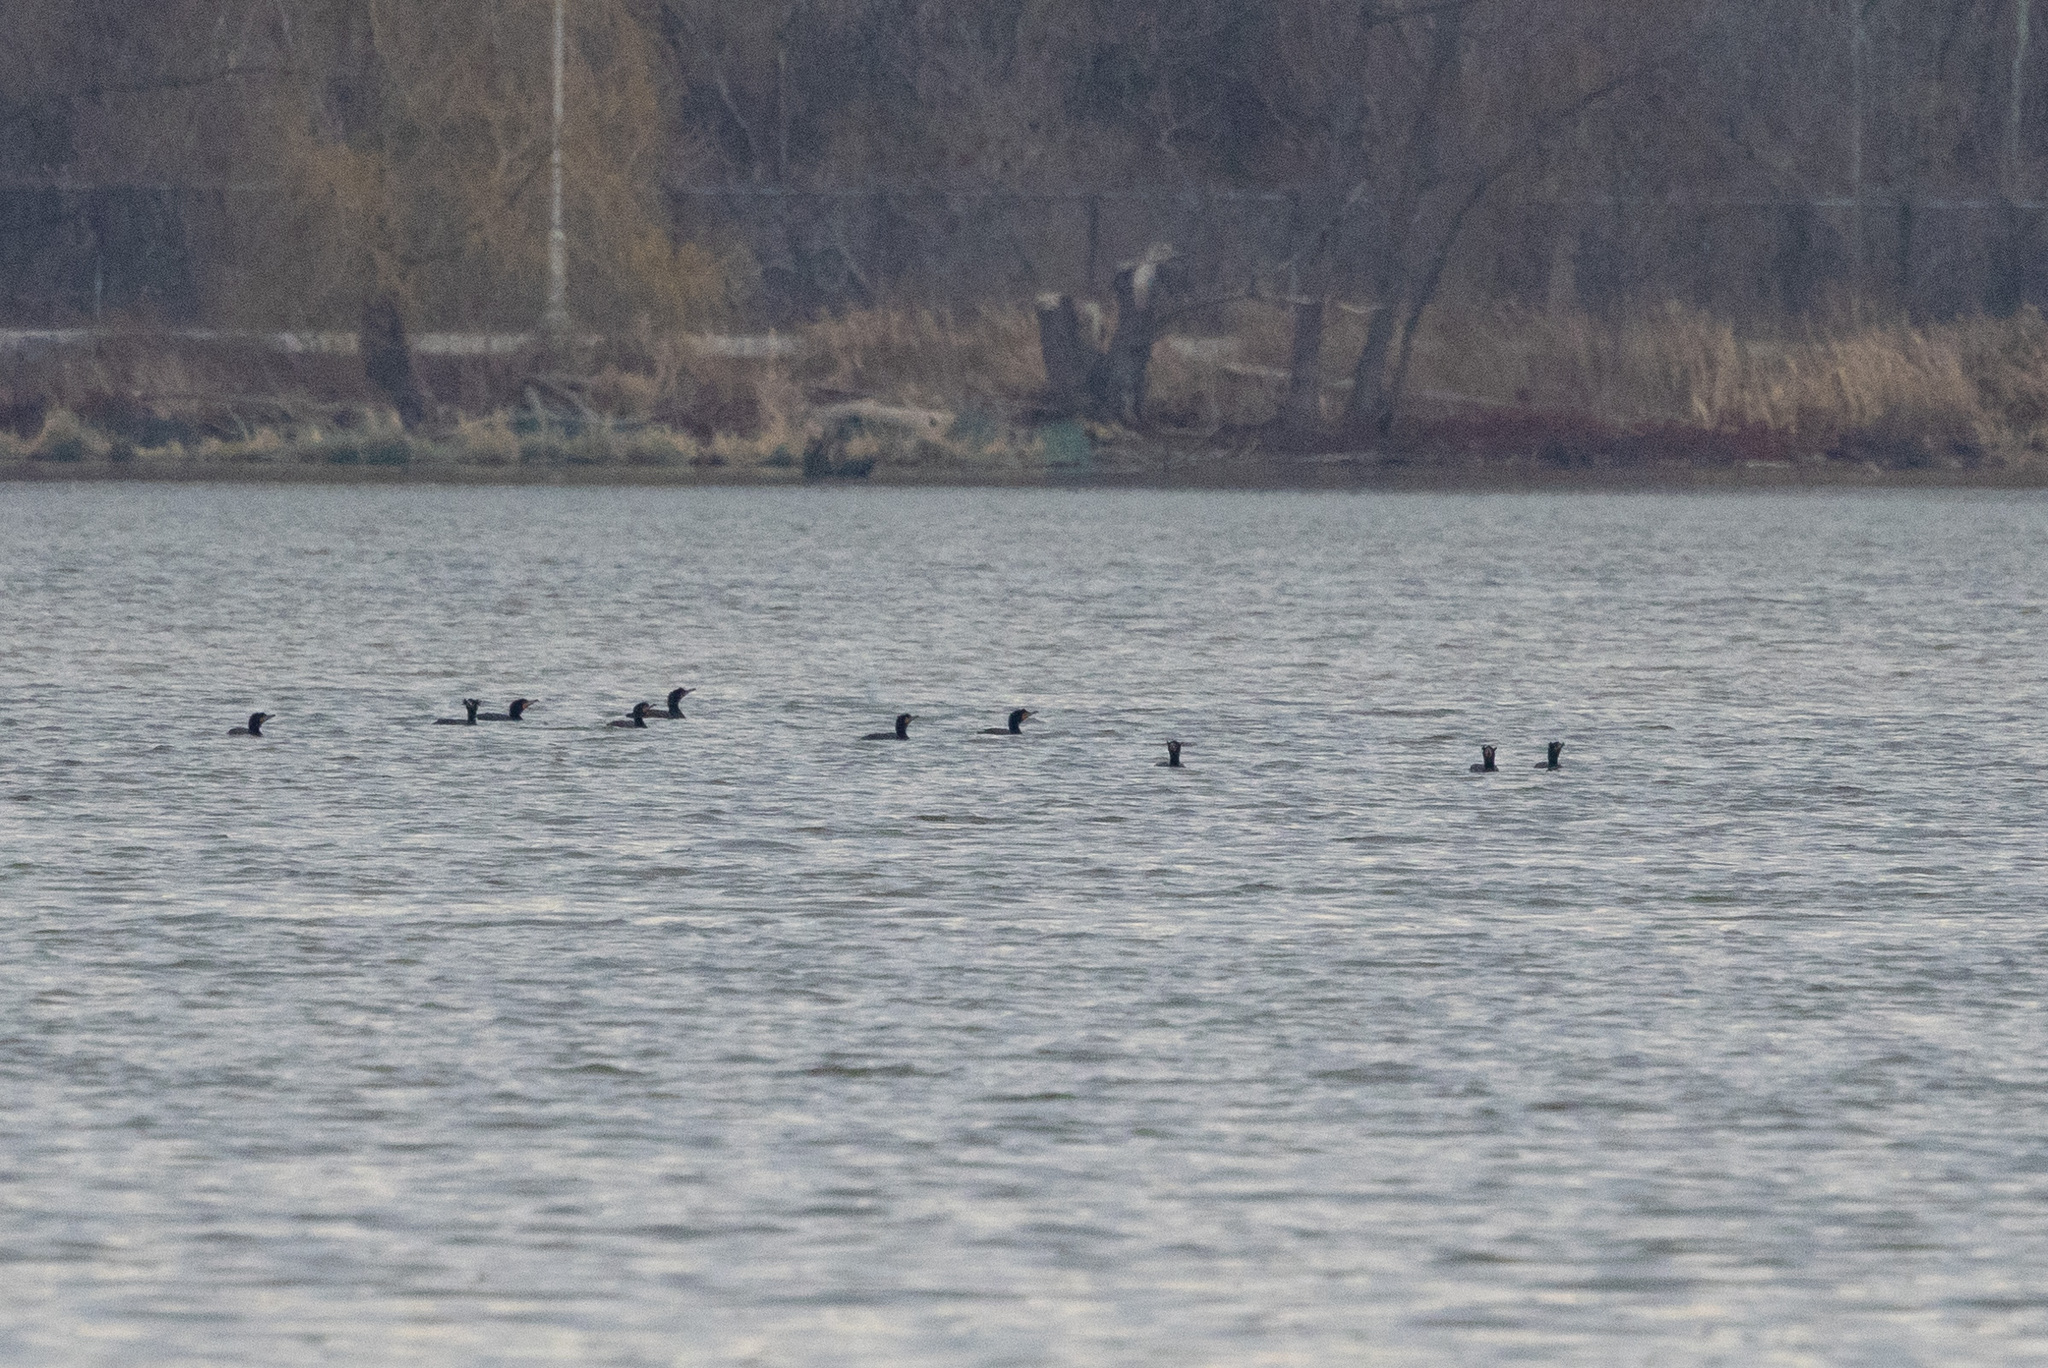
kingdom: Animalia
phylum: Chordata
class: Aves
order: Suliformes
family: Phalacrocoracidae
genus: Phalacrocorax
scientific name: Phalacrocorax auritus
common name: Double-crested cormorant
